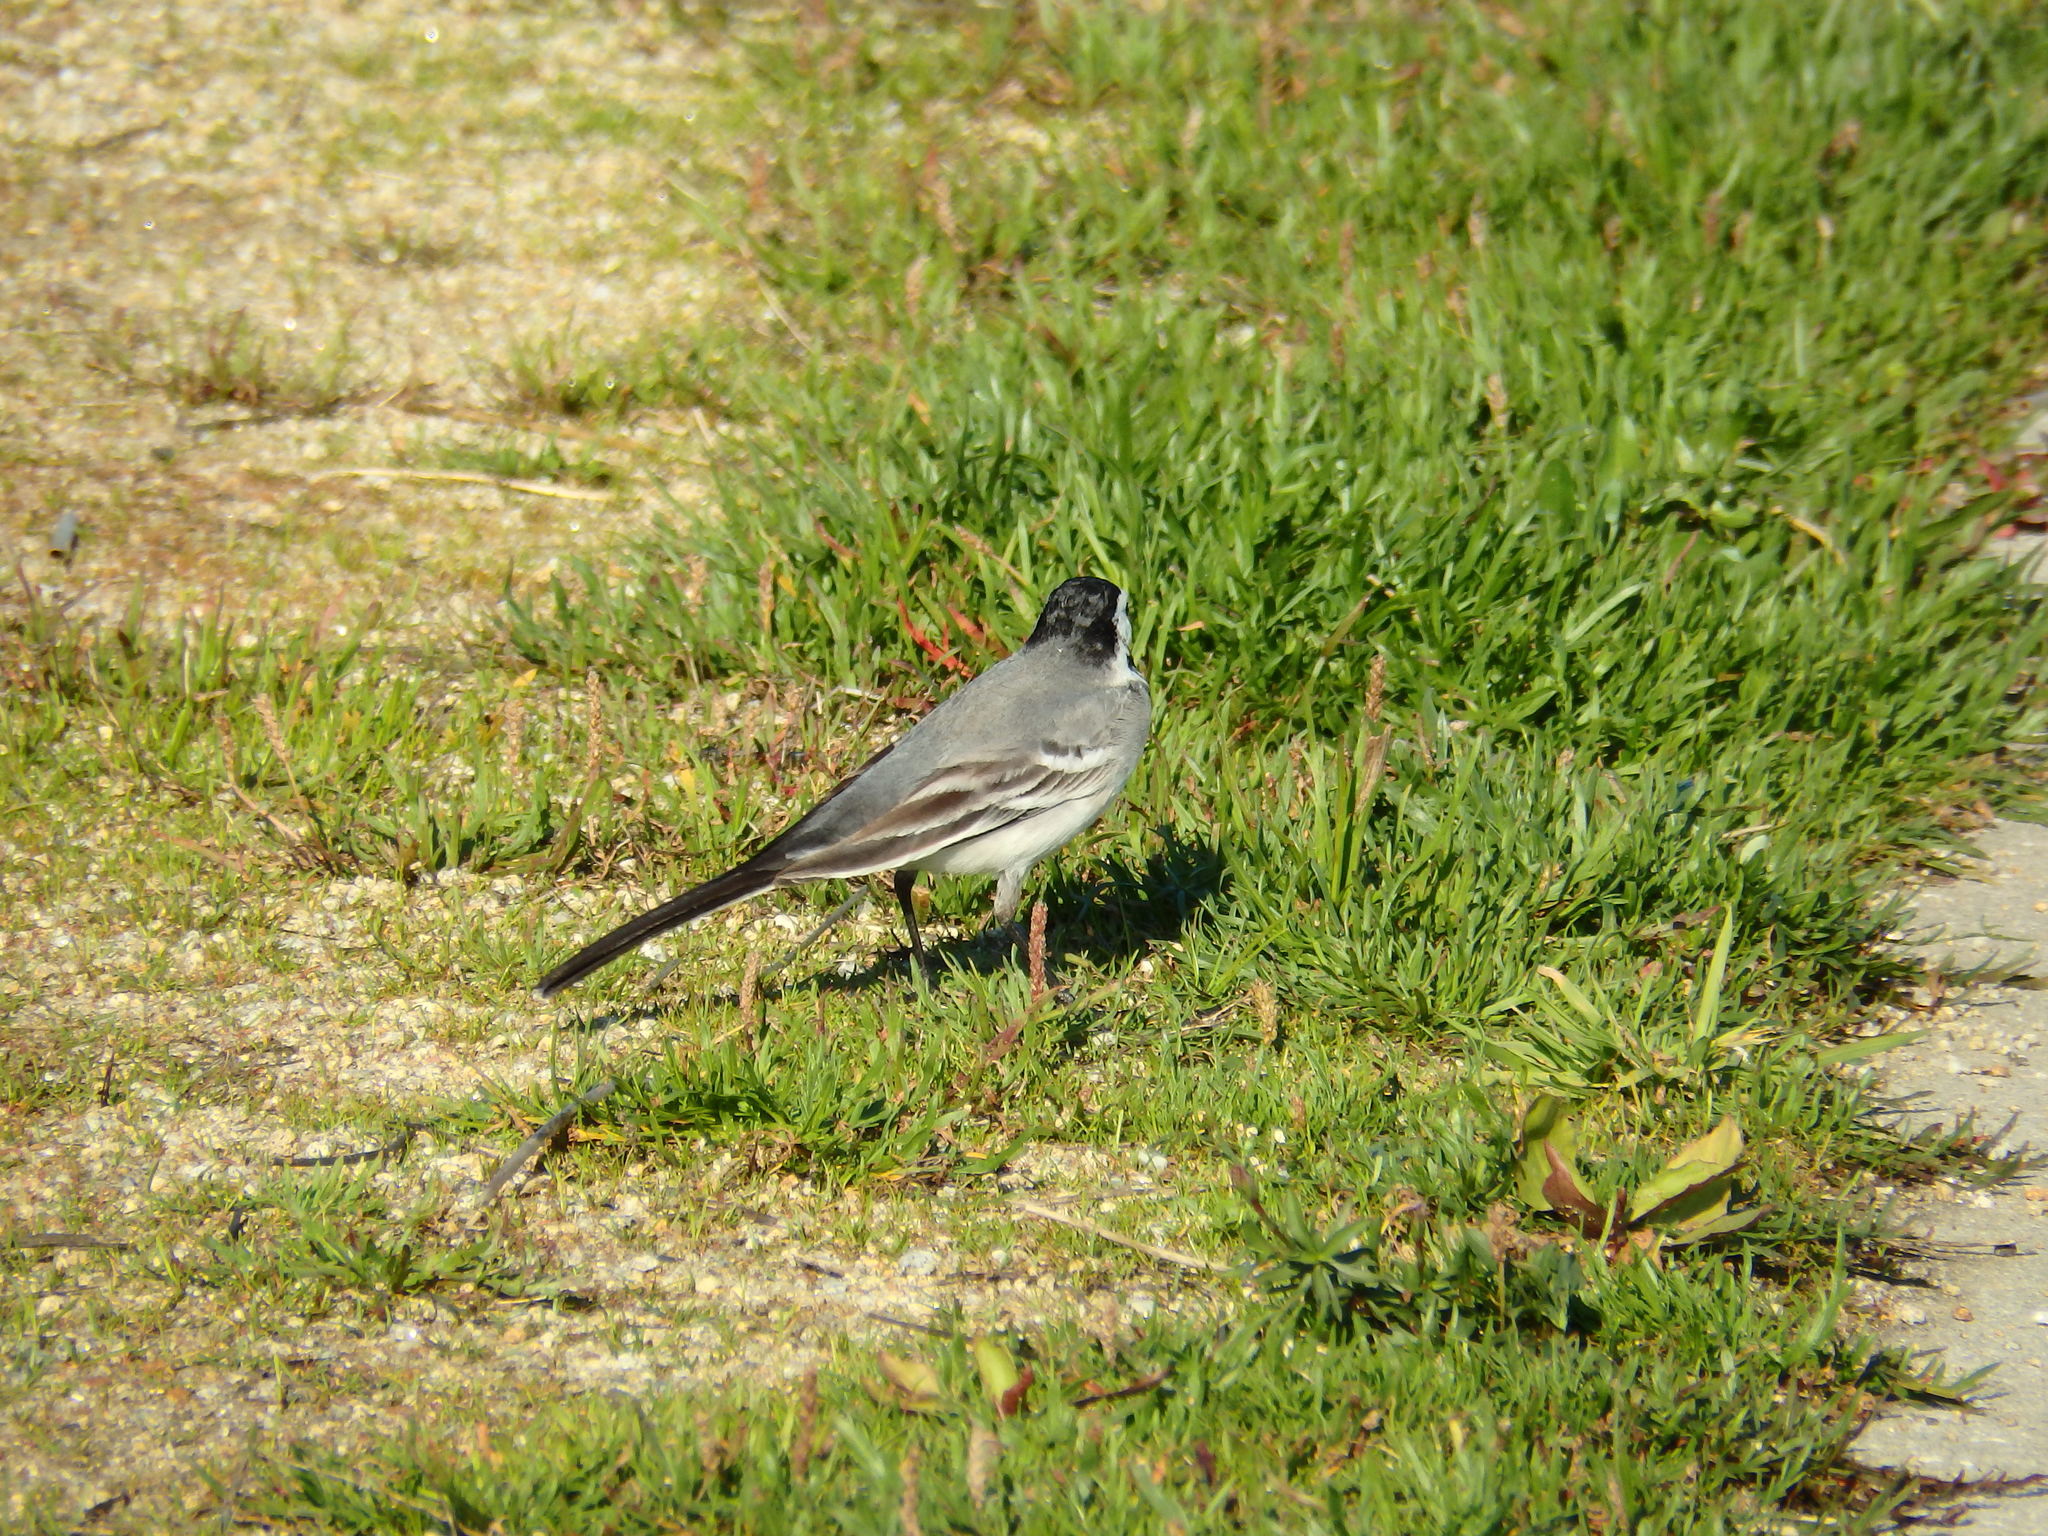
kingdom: Animalia
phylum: Chordata
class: Aves
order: Passeriformes
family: Motacillidae
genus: Motacilla
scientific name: Motacilla alba
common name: White wagtail
